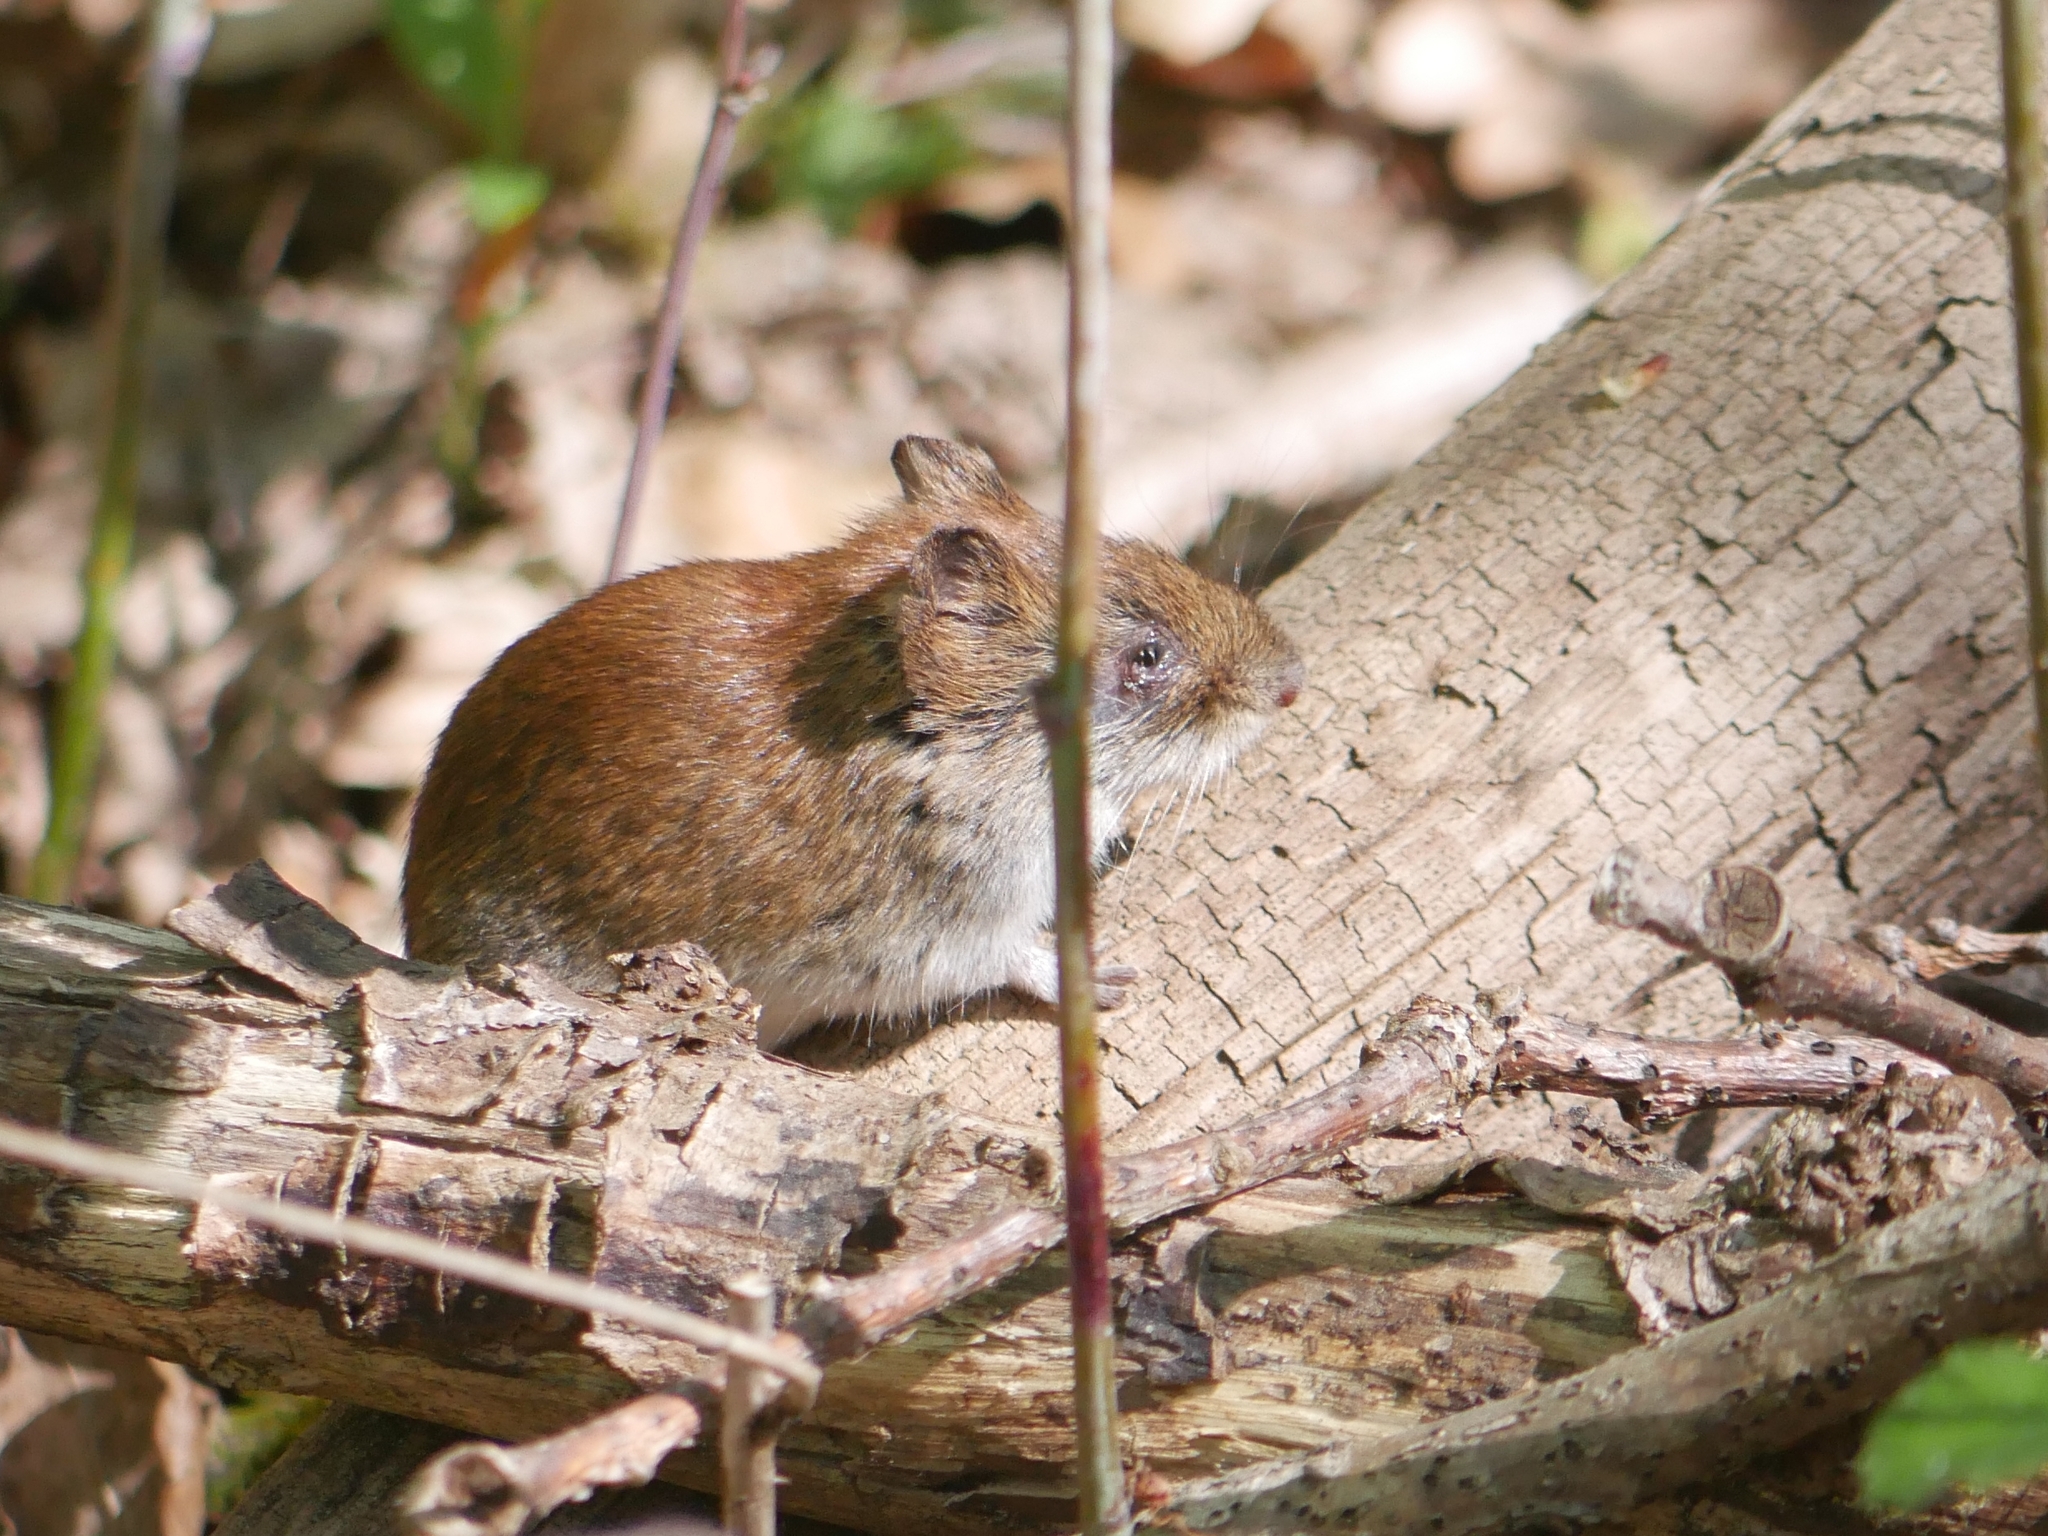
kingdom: Animalia
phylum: Chordata
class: Mammalia
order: Rodentia
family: Cricetidae
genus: Myodes
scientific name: Myodes glareolus
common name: Bank vole
